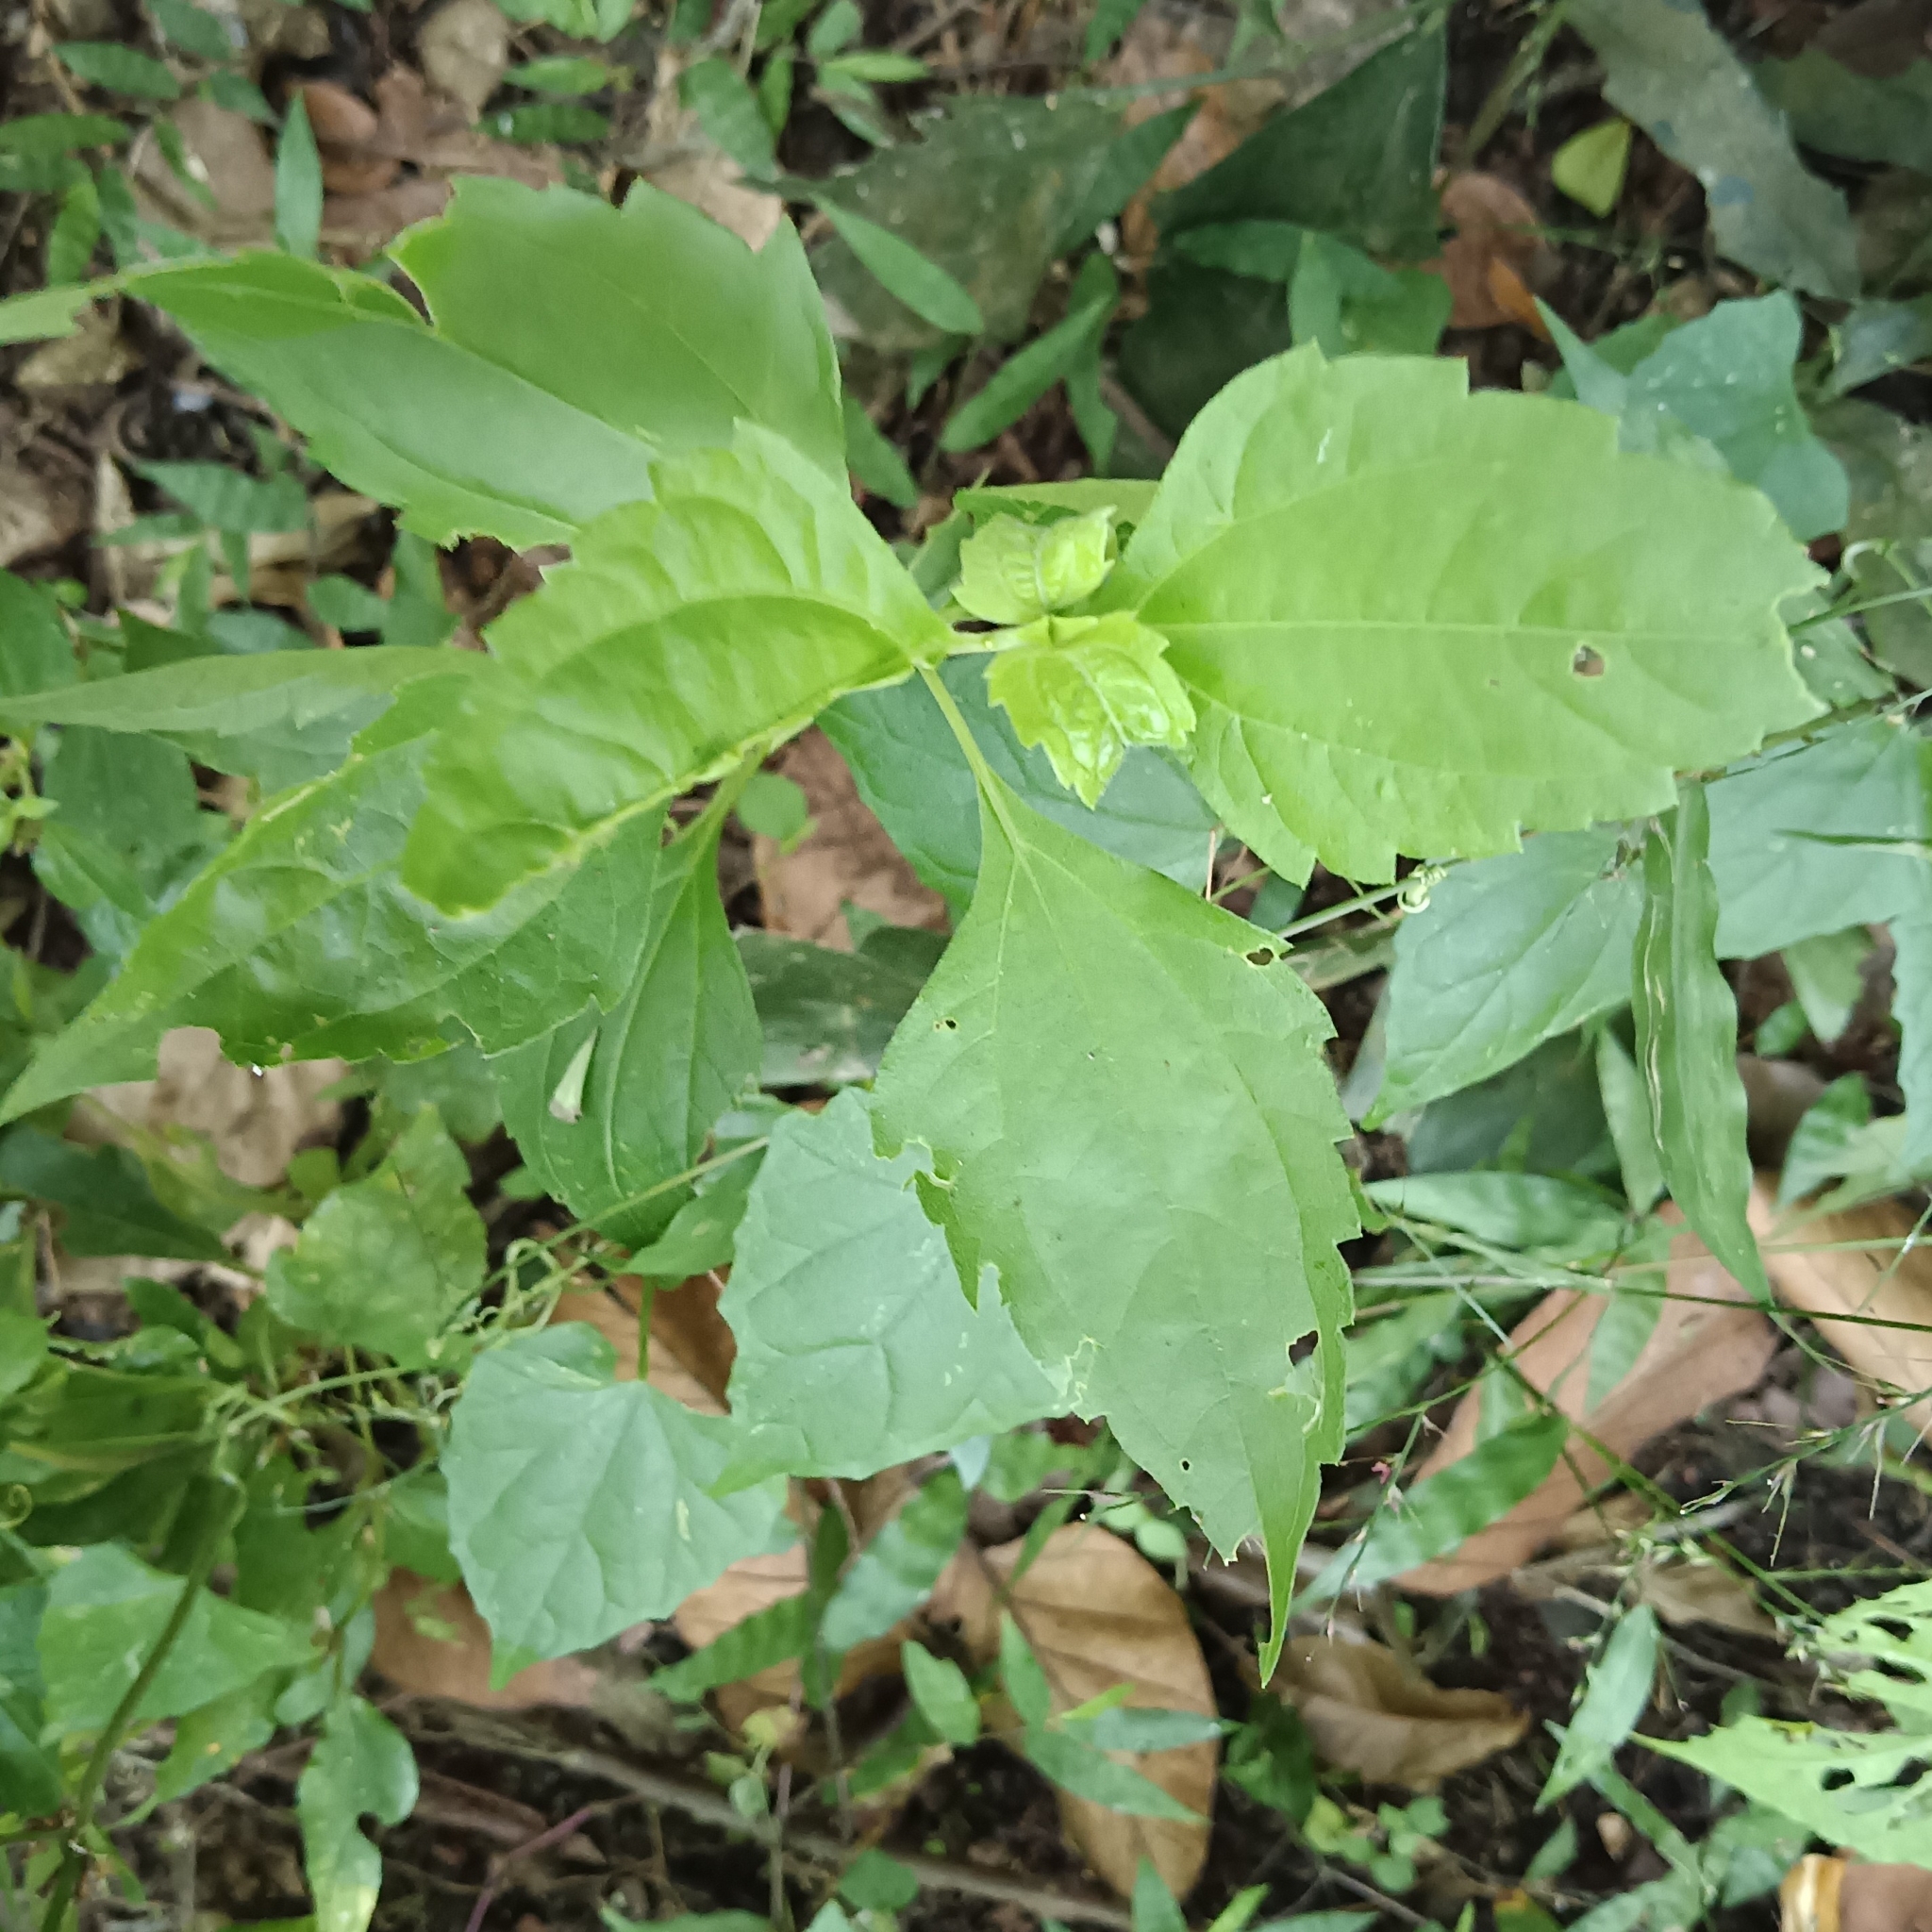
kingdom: Plantae
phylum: Tracheophyta
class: Magnoliopsida
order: Asterales
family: Asteraceae
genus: Chromolaena
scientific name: Chromolaena odorata
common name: Siamweed
